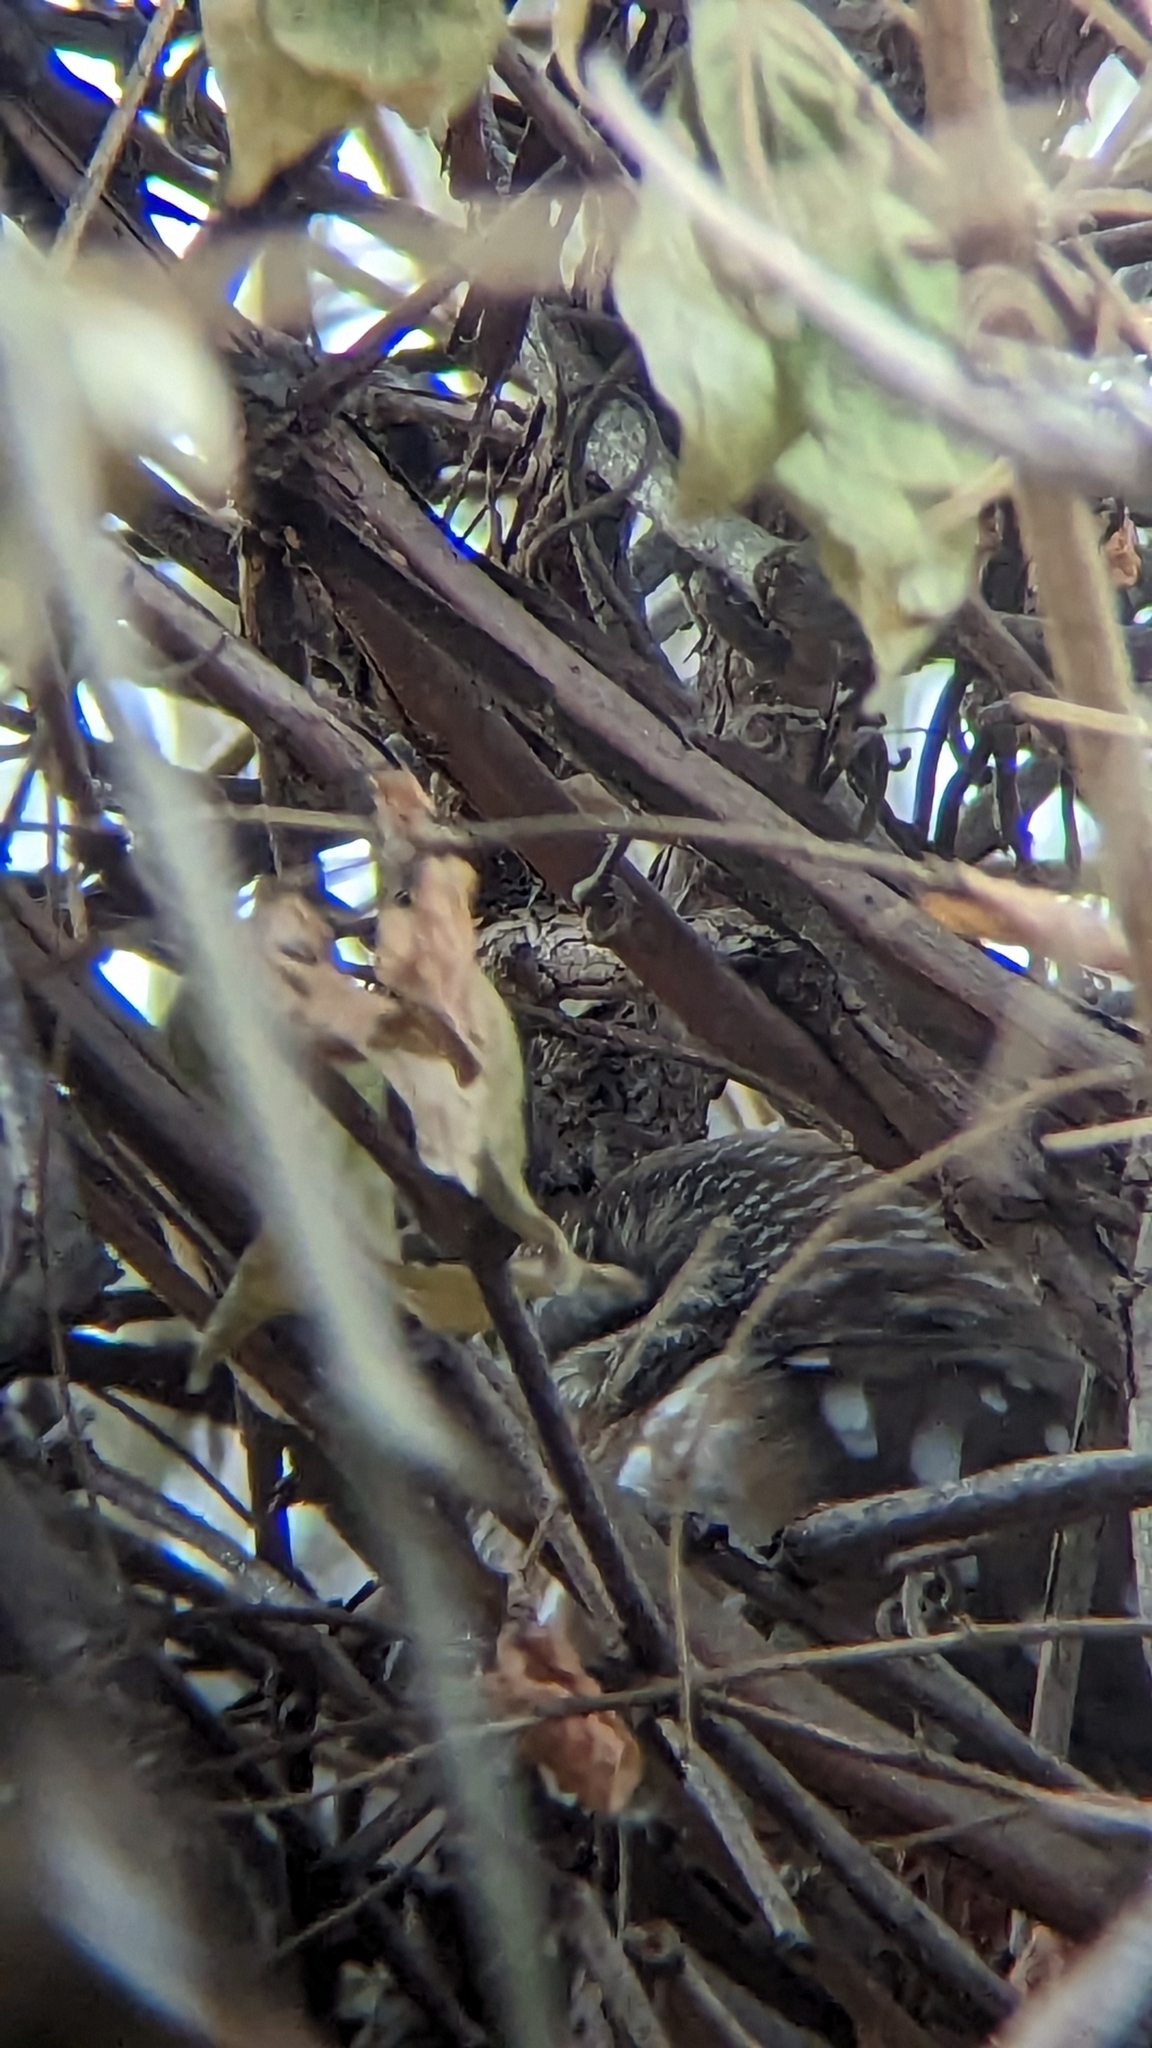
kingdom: Animalia
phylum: Chordata
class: Aves
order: Strigiformes
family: Strigidae
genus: Aegolius
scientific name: Aegolius acadicus
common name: Northern saw-whet owl
